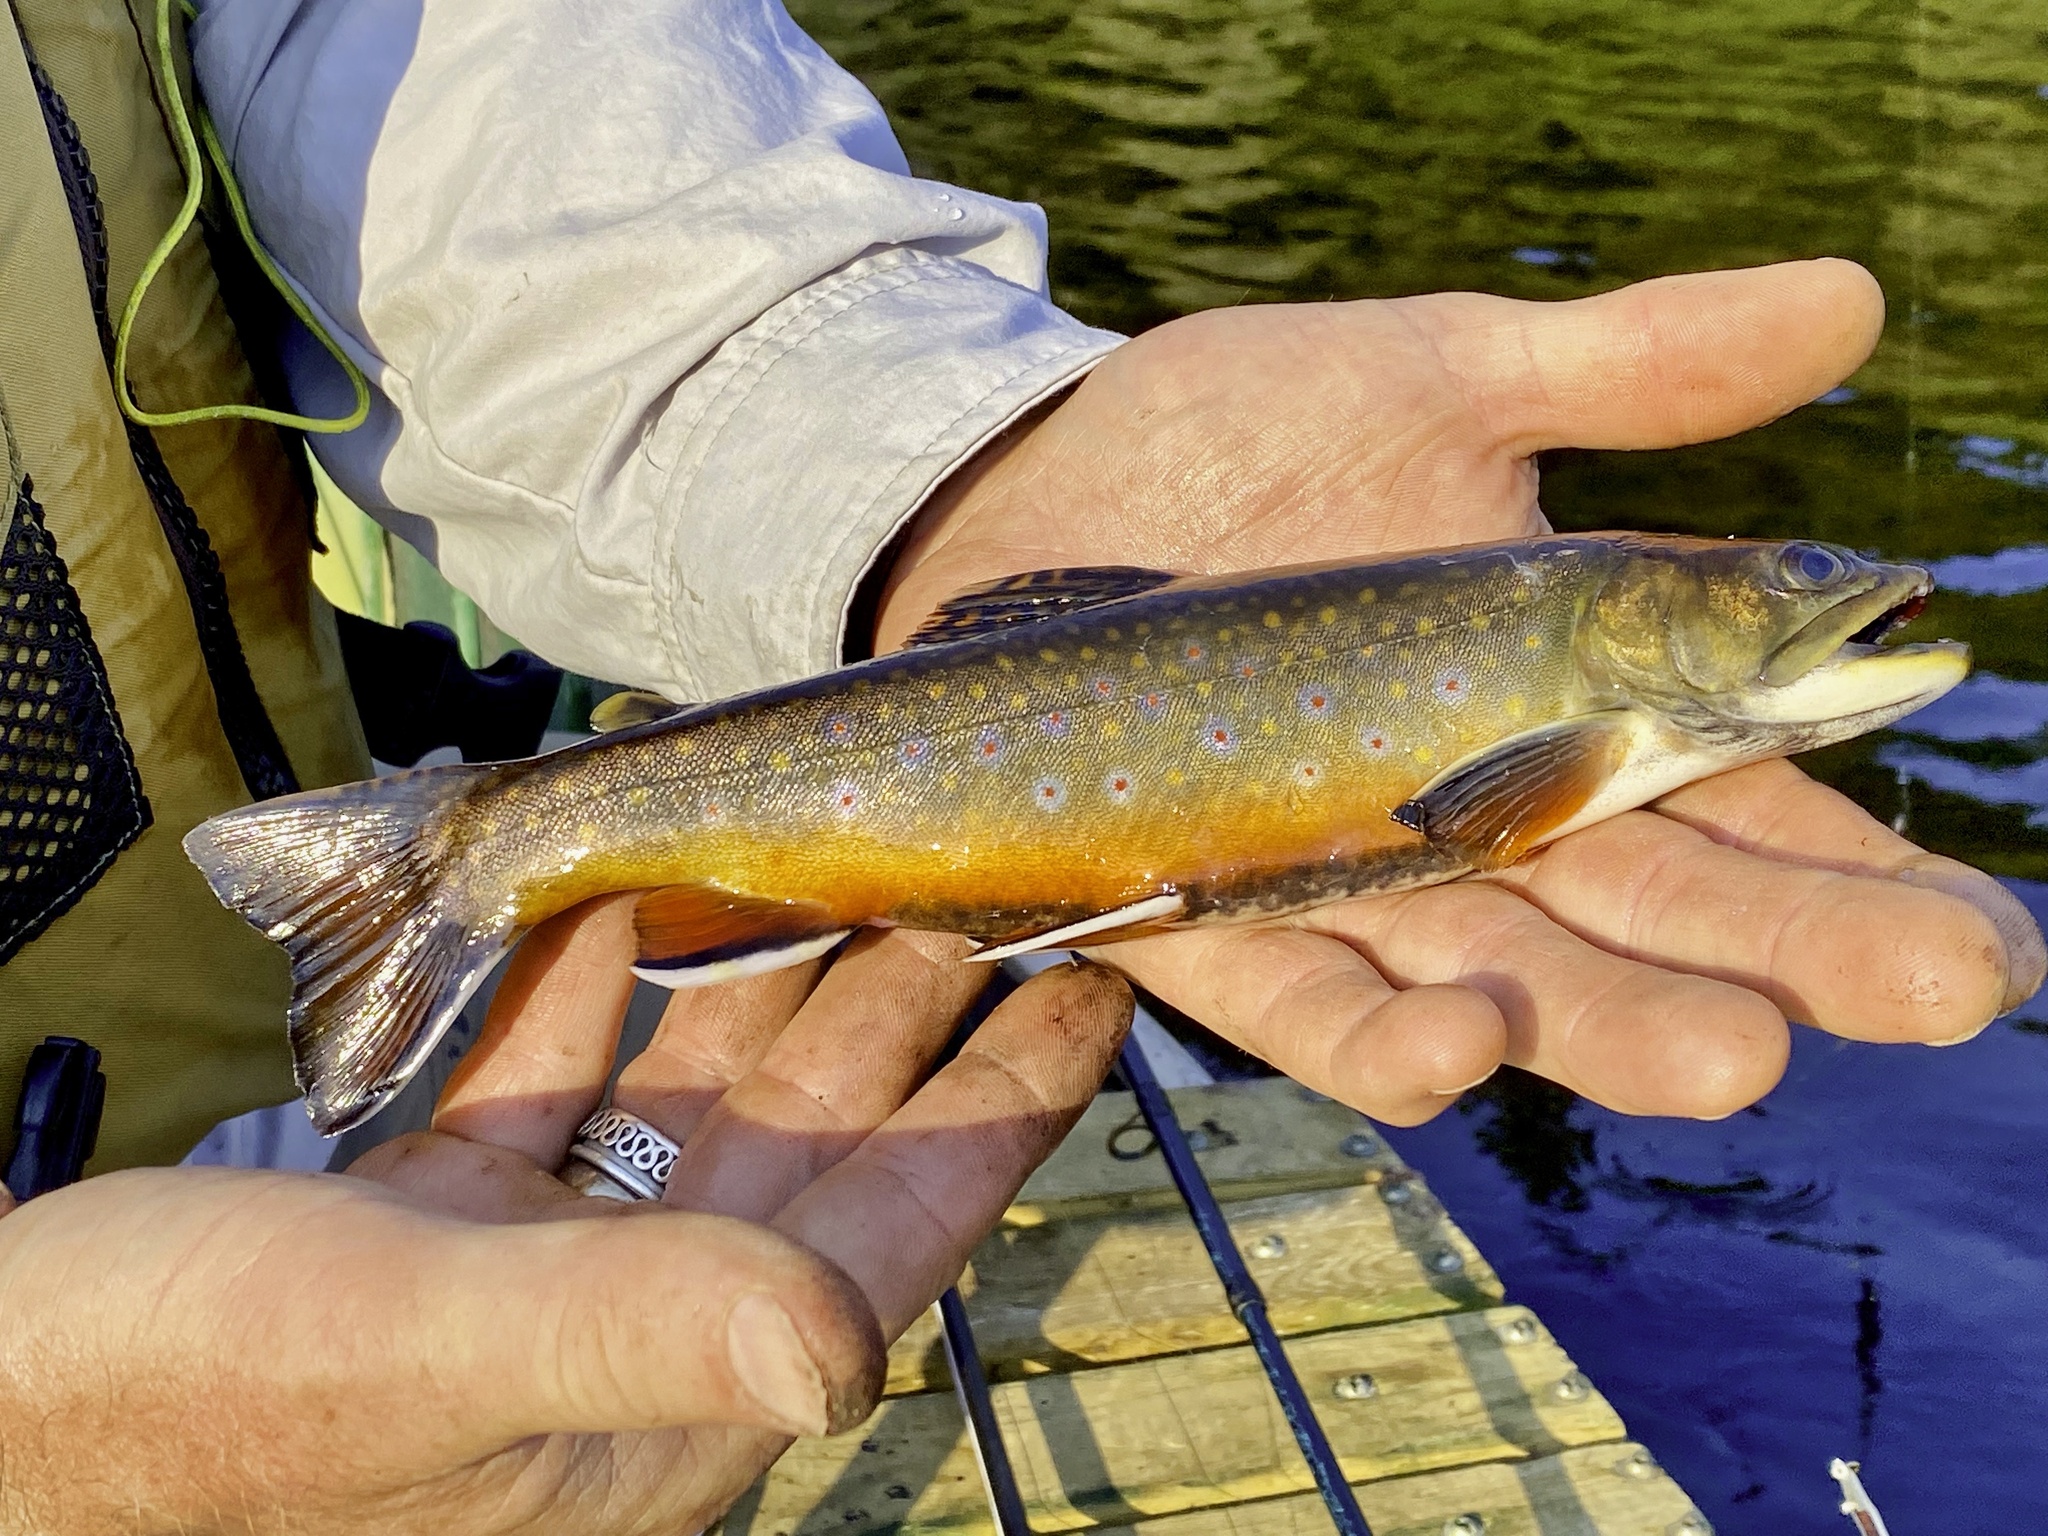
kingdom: Animalia
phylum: Chordata
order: Salmoniformes
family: Salmonidae
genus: Salvelinus
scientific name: Salvelinus fontinalis
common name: Brook trout
